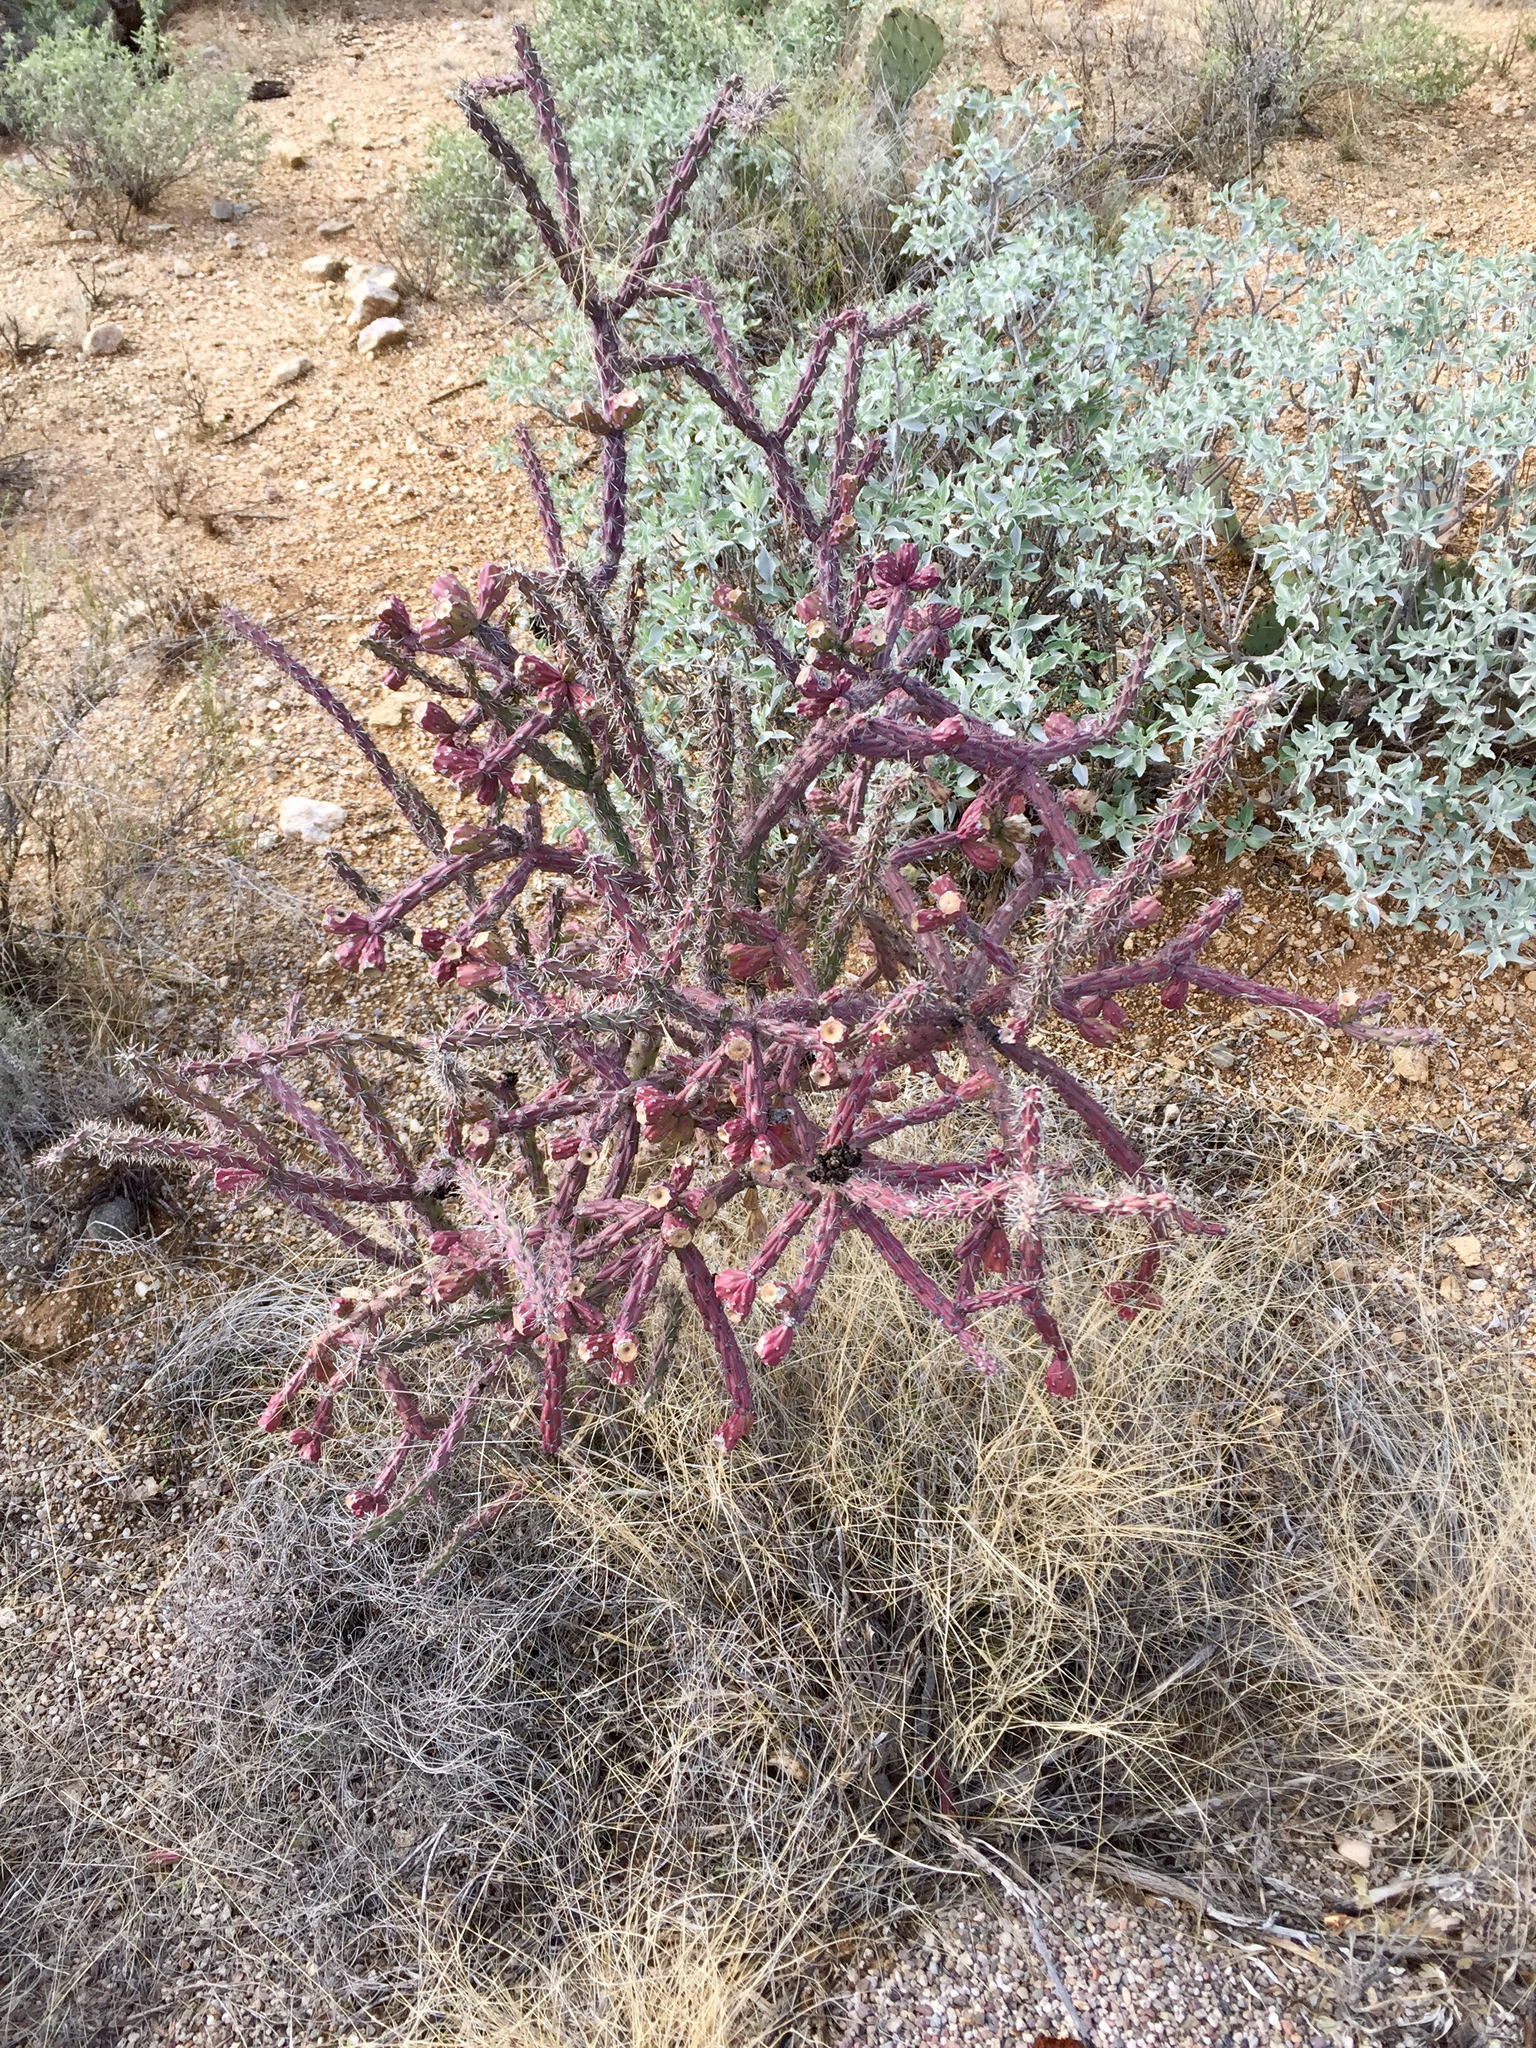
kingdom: Plantae
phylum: Tracheophyta
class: Magnoliopsida
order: Caryophyllales
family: Cactaceae
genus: Cylindropuntia
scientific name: Cylindropuntia thurberi
